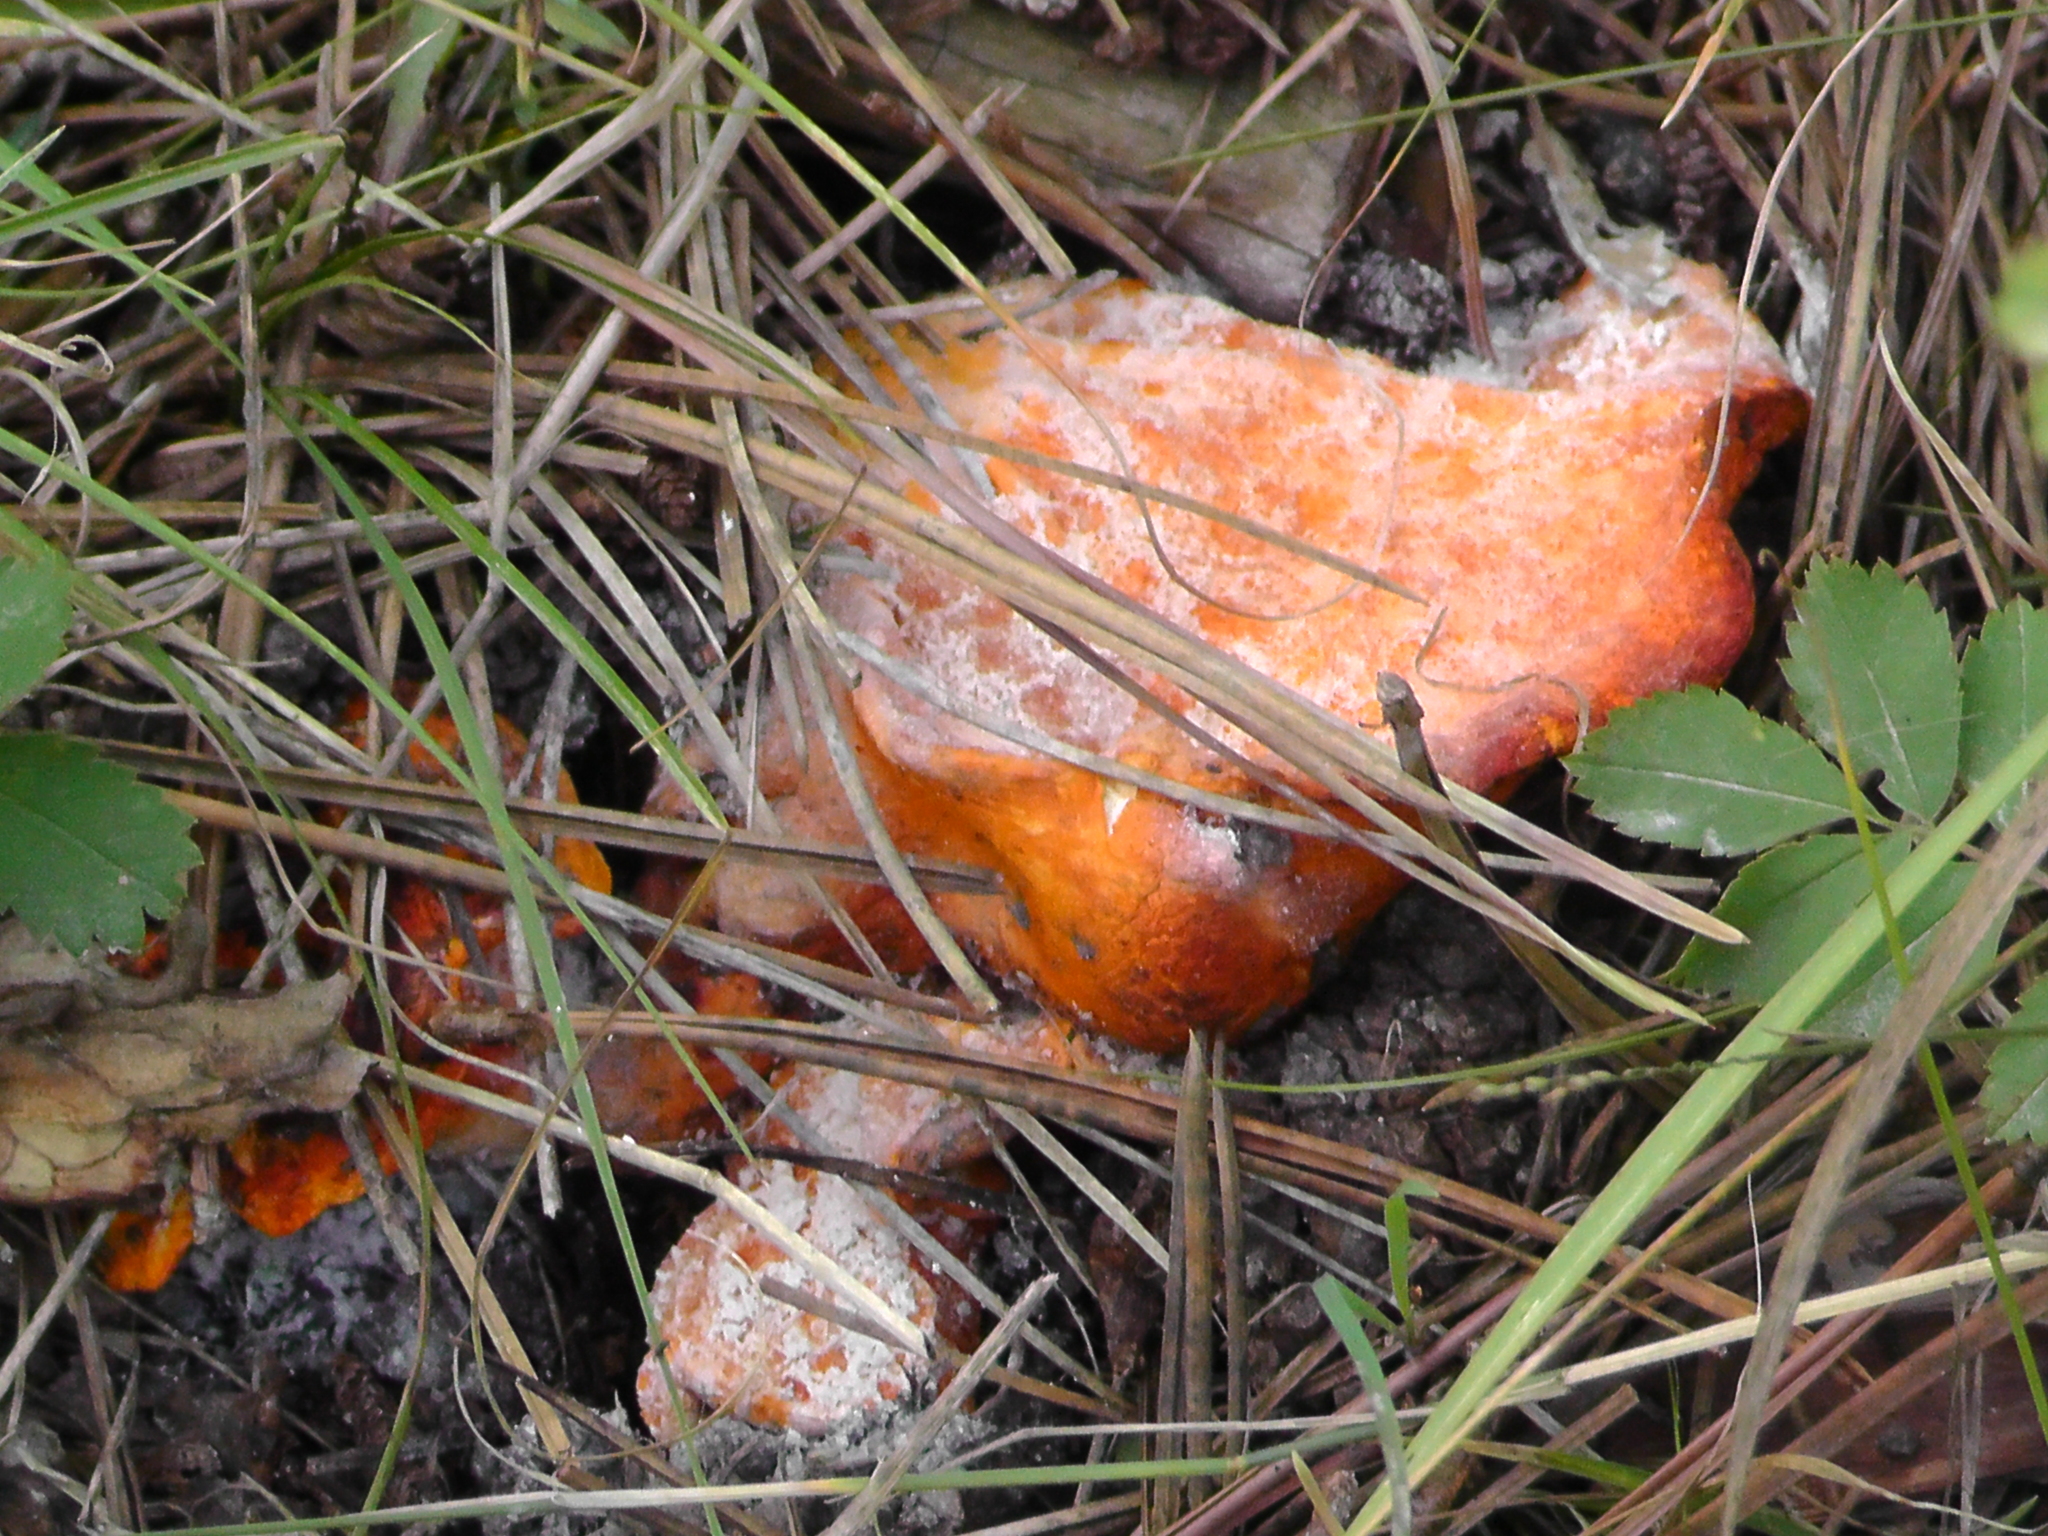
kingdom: Fungi
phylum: Ascomycota
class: Sordariomycetes
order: Hypocreales
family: Hypocreaceae
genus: Hypomyces
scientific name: Hypomyces lactifluorum
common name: Lobster mushroom
